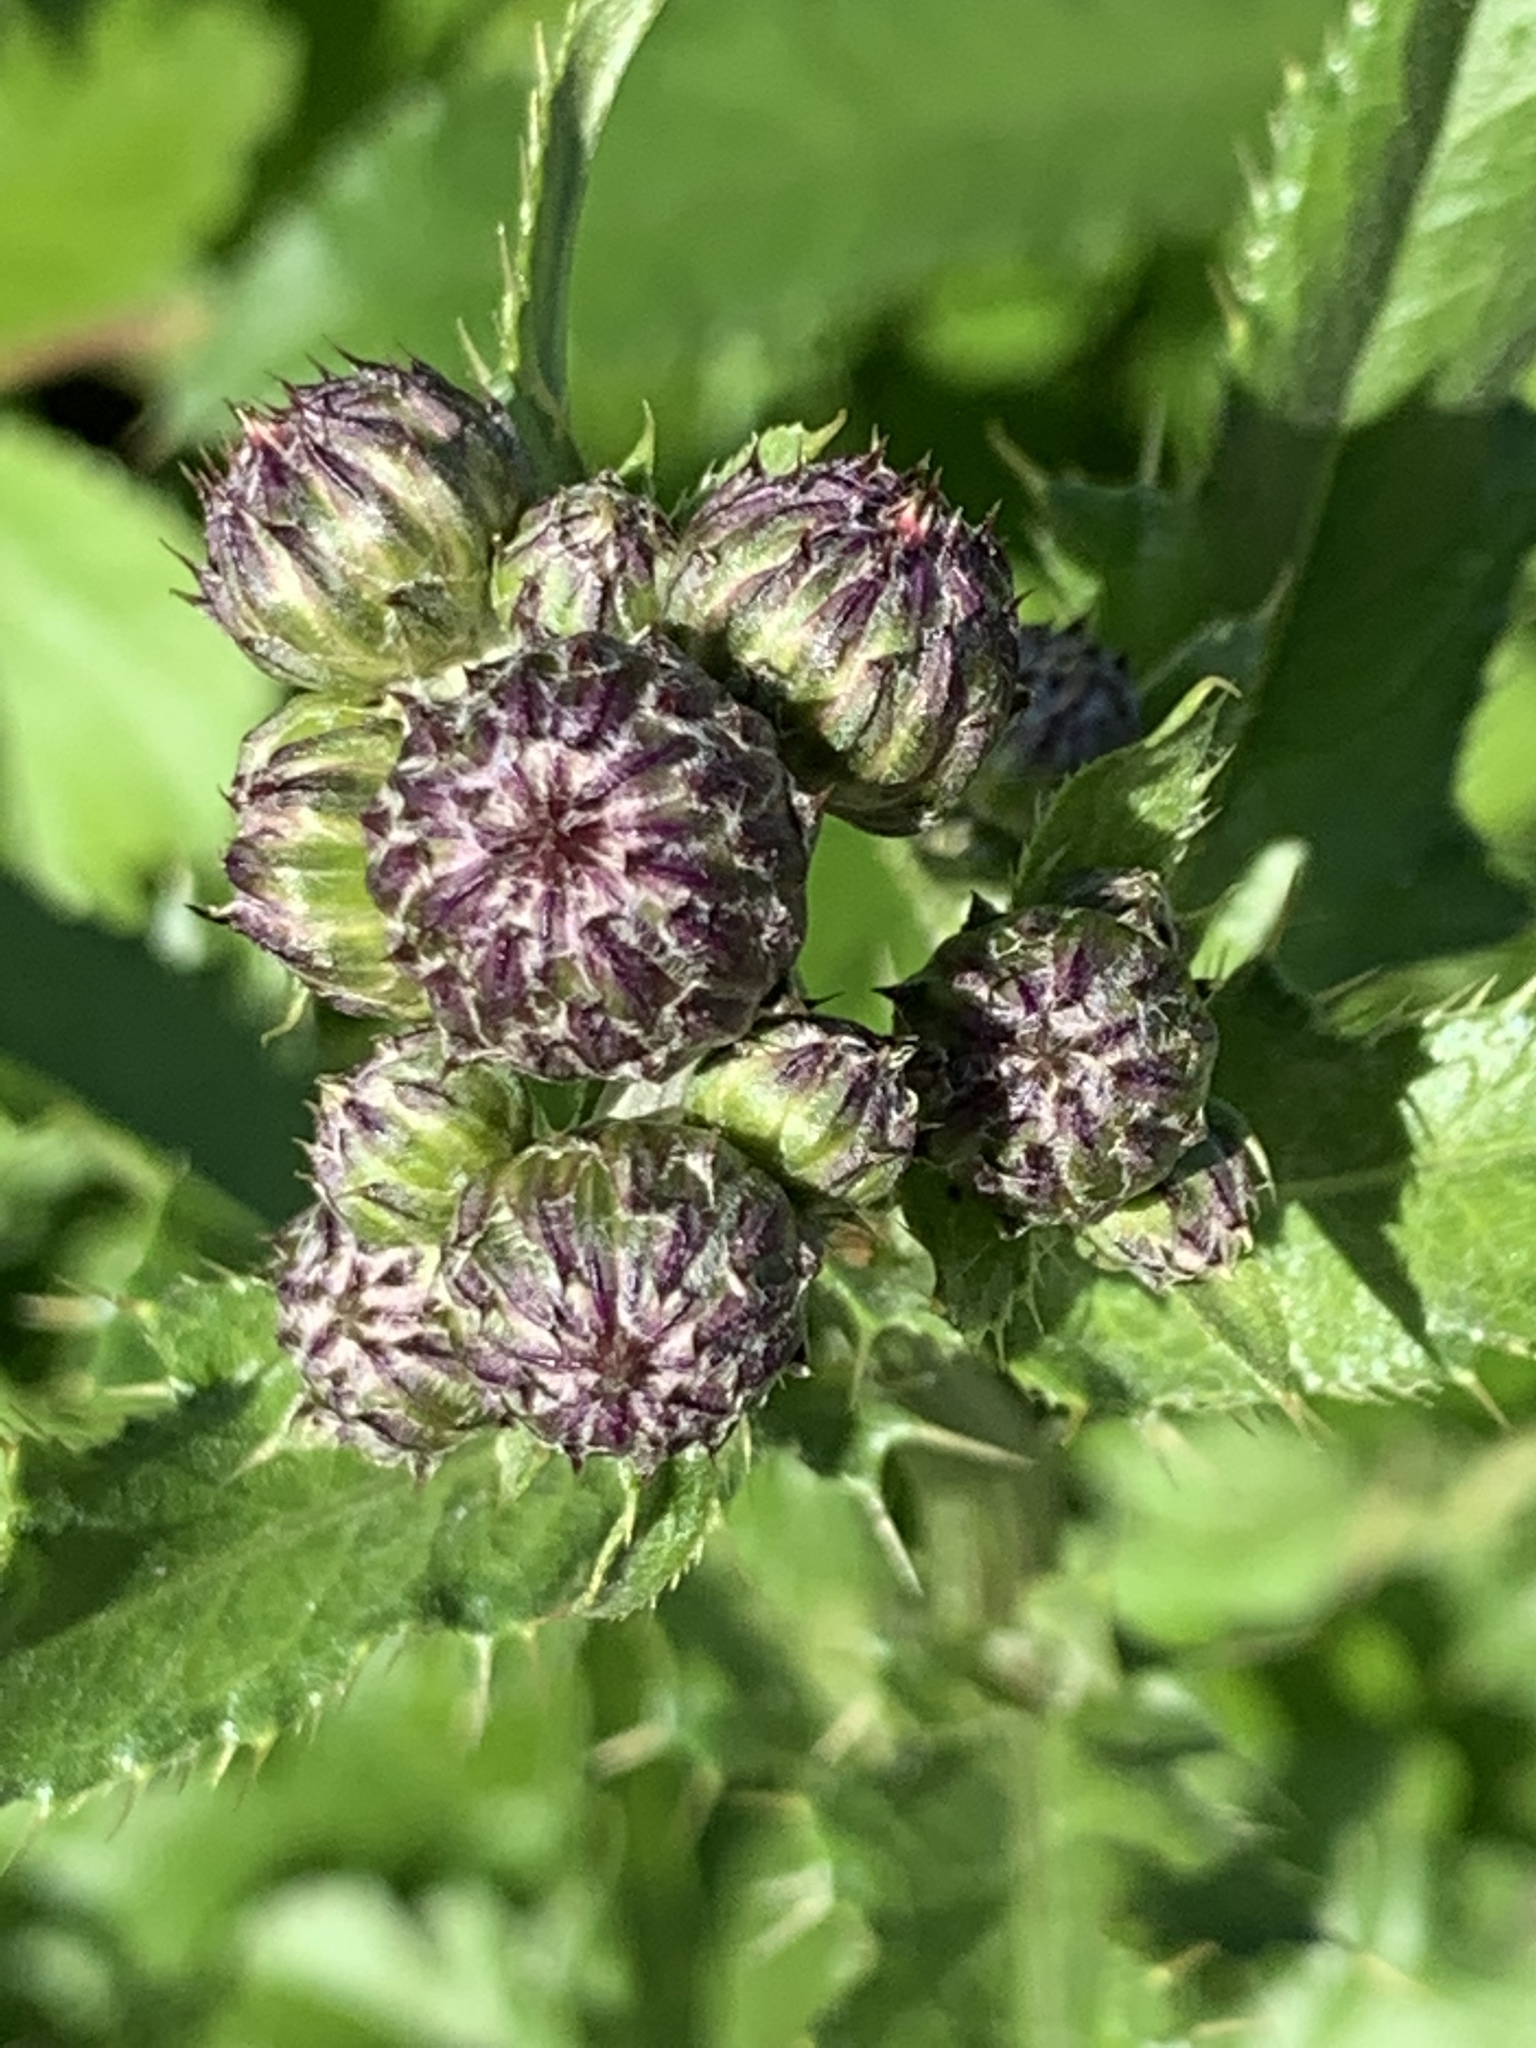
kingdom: Plantae
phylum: Tracheophyta
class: Magnoliopsida
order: Asterales
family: Asteraceae
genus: Cirsium
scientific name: Cirsium arvense
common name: Creeping thistle
